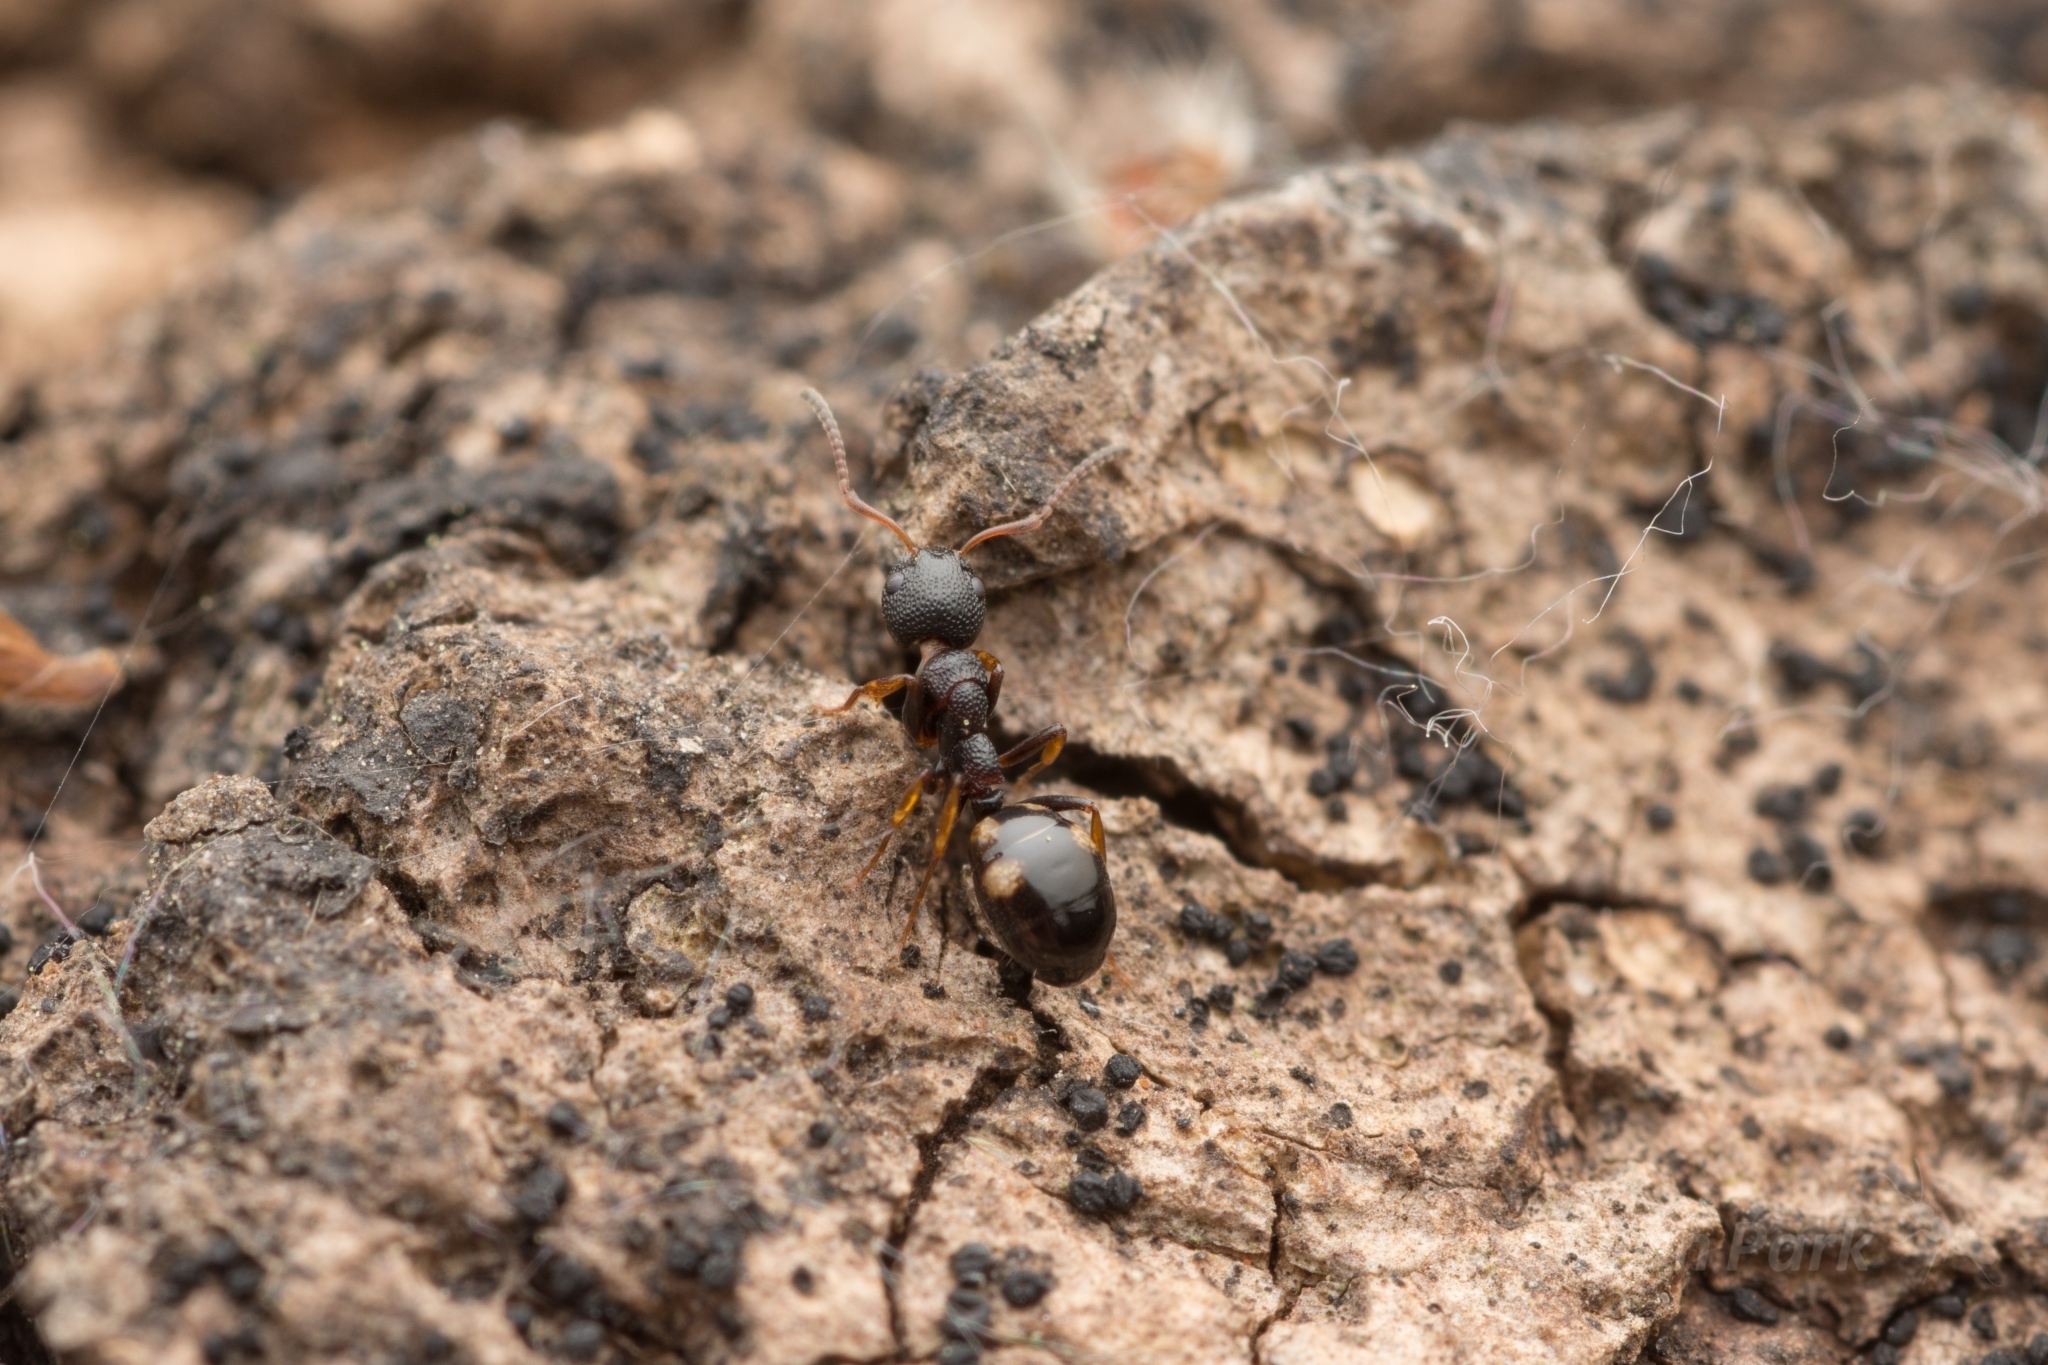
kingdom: Animalia
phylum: Arthropoda
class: Insecta
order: Hymenoptera
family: Formicidae
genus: Dolichoderus
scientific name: Dolichoderus sibiricus
